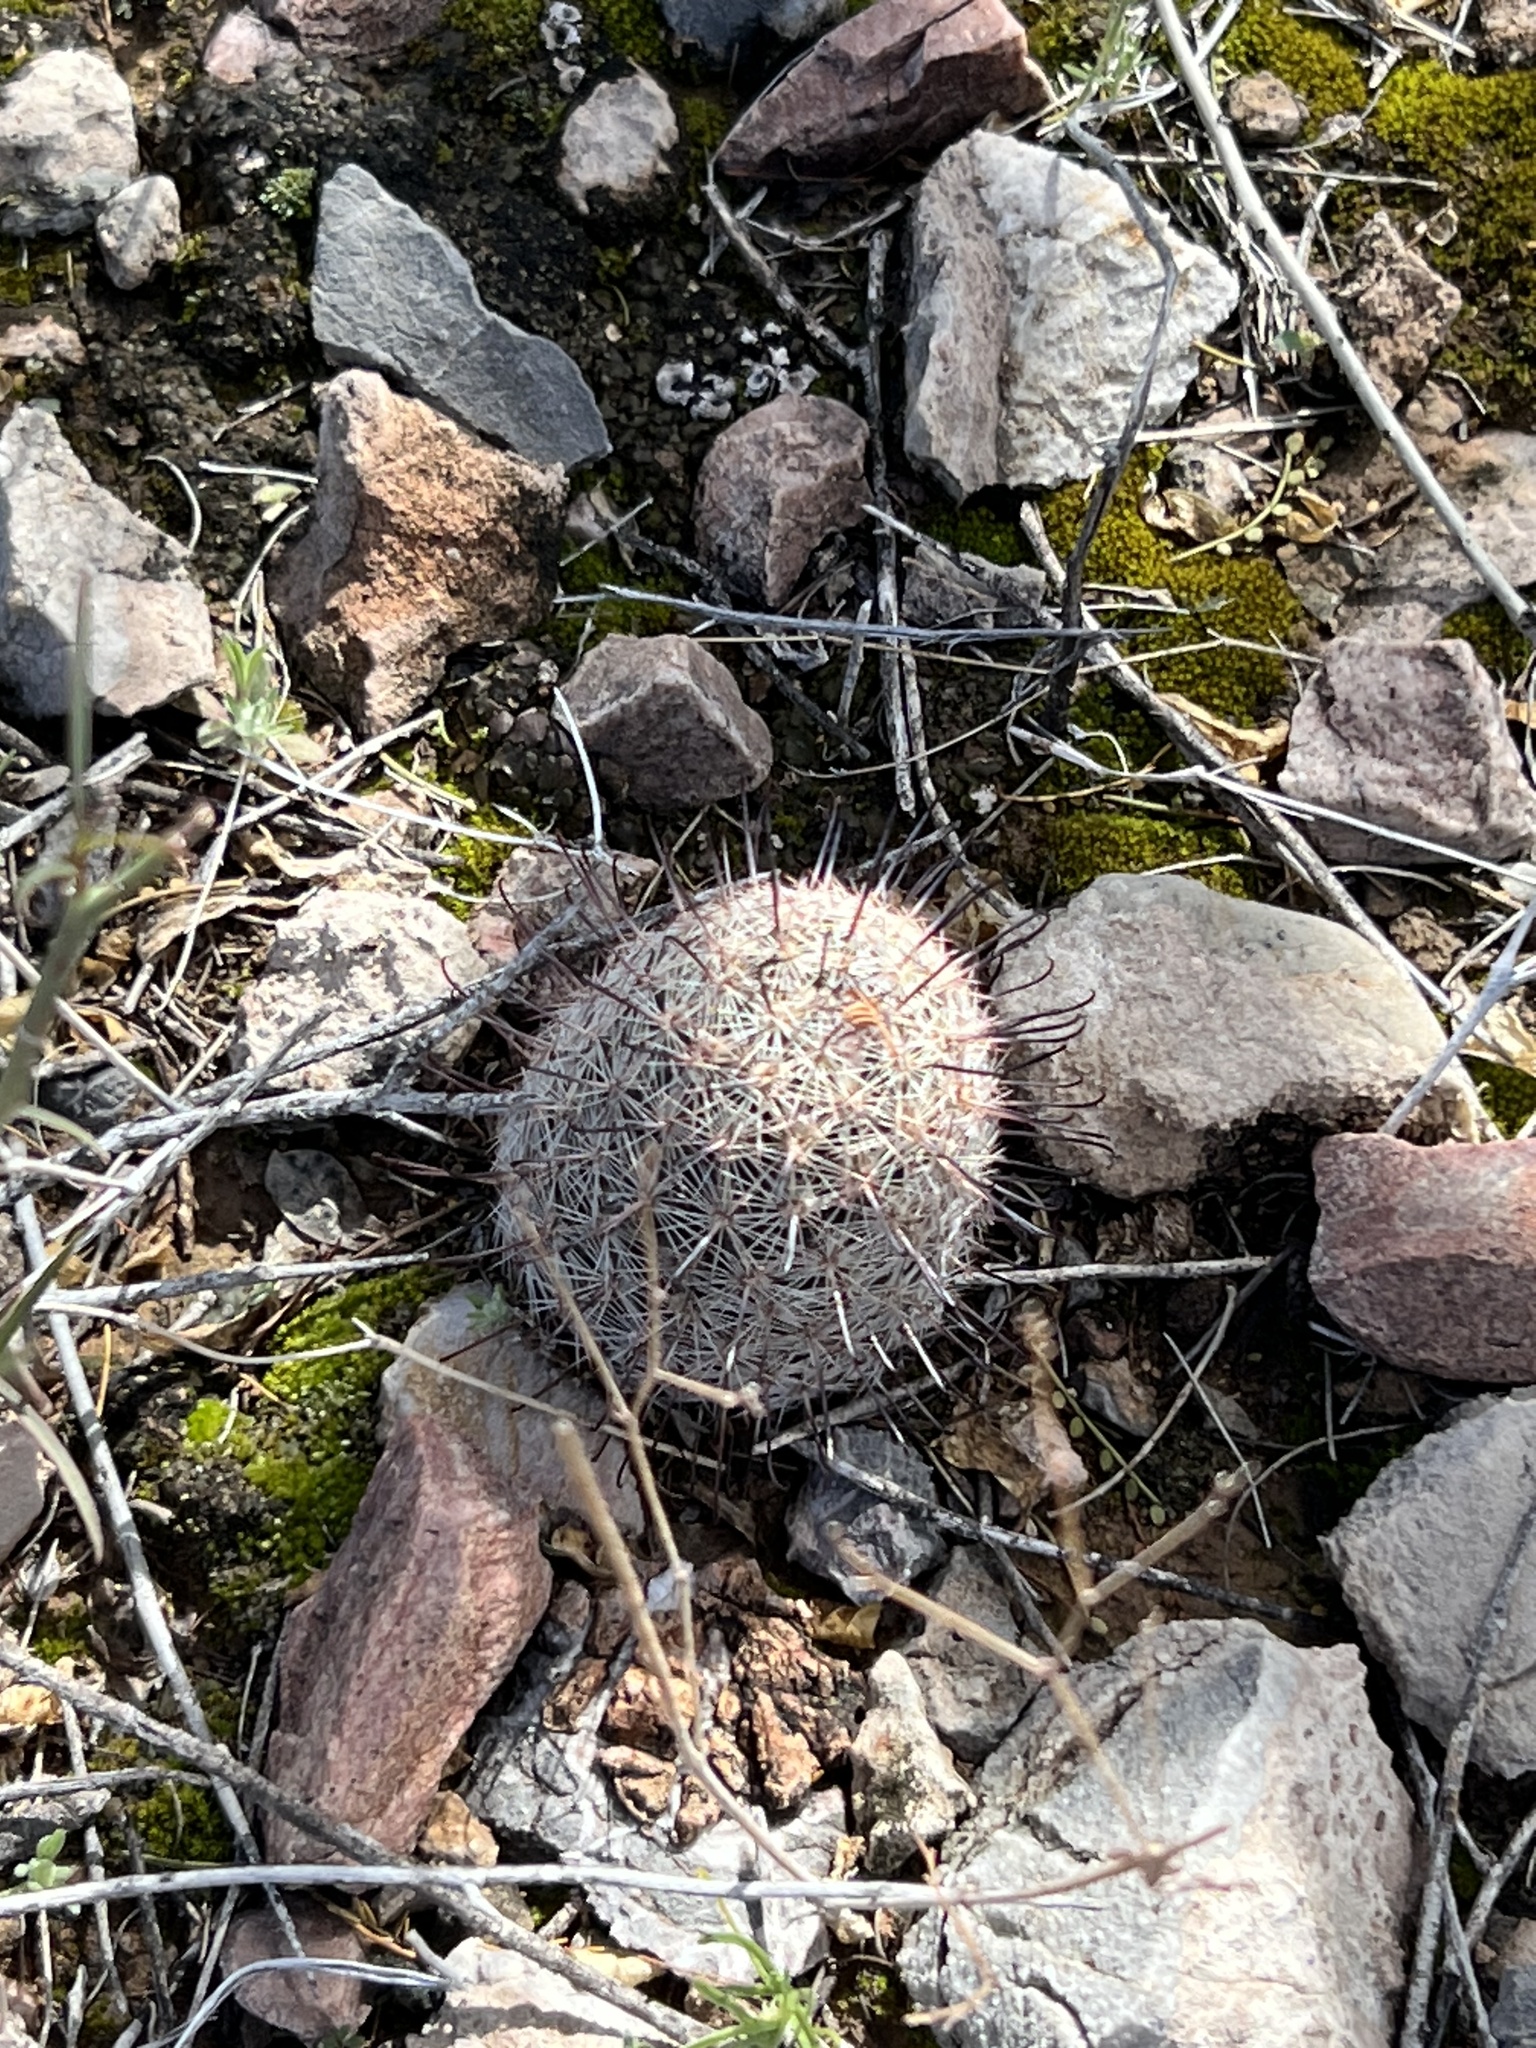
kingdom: Plantae
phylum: Tracheophyta
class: Magnoliopsida
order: Caryophyllales
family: Cactaceae
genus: Cochemiea
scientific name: Cochemiea grahamii
